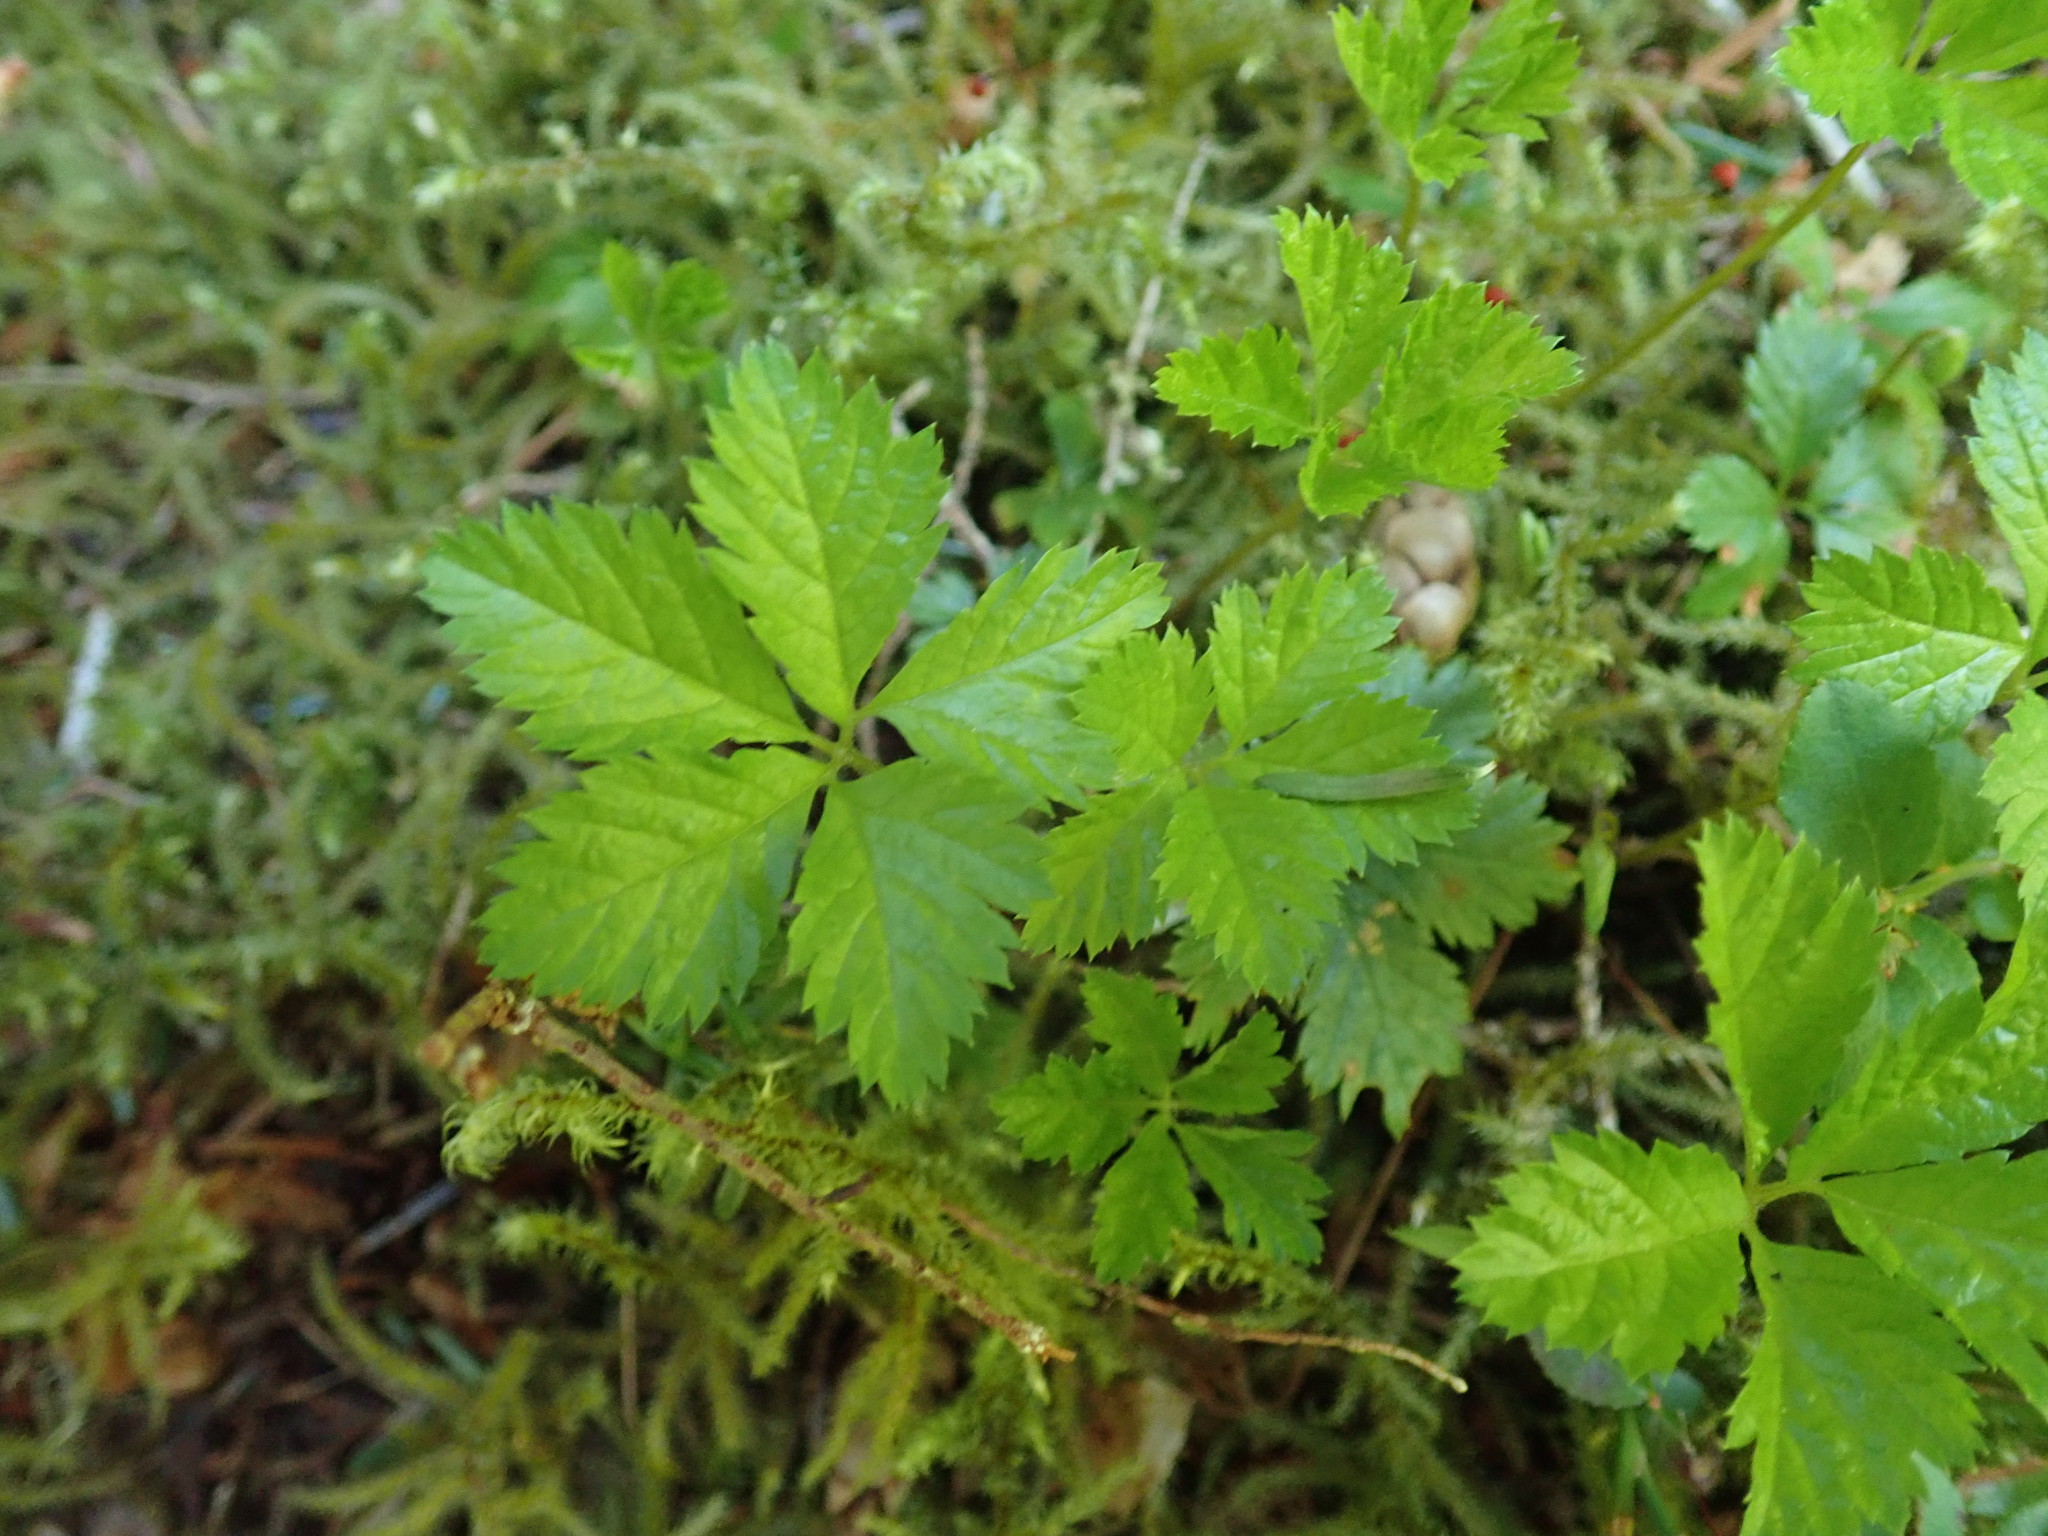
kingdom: Plantae
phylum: Tracheophyta
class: Magnoliopsida
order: Rosales
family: Rosaceae
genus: Rubus
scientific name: Rubus pedatus
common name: Creeping raspberry
